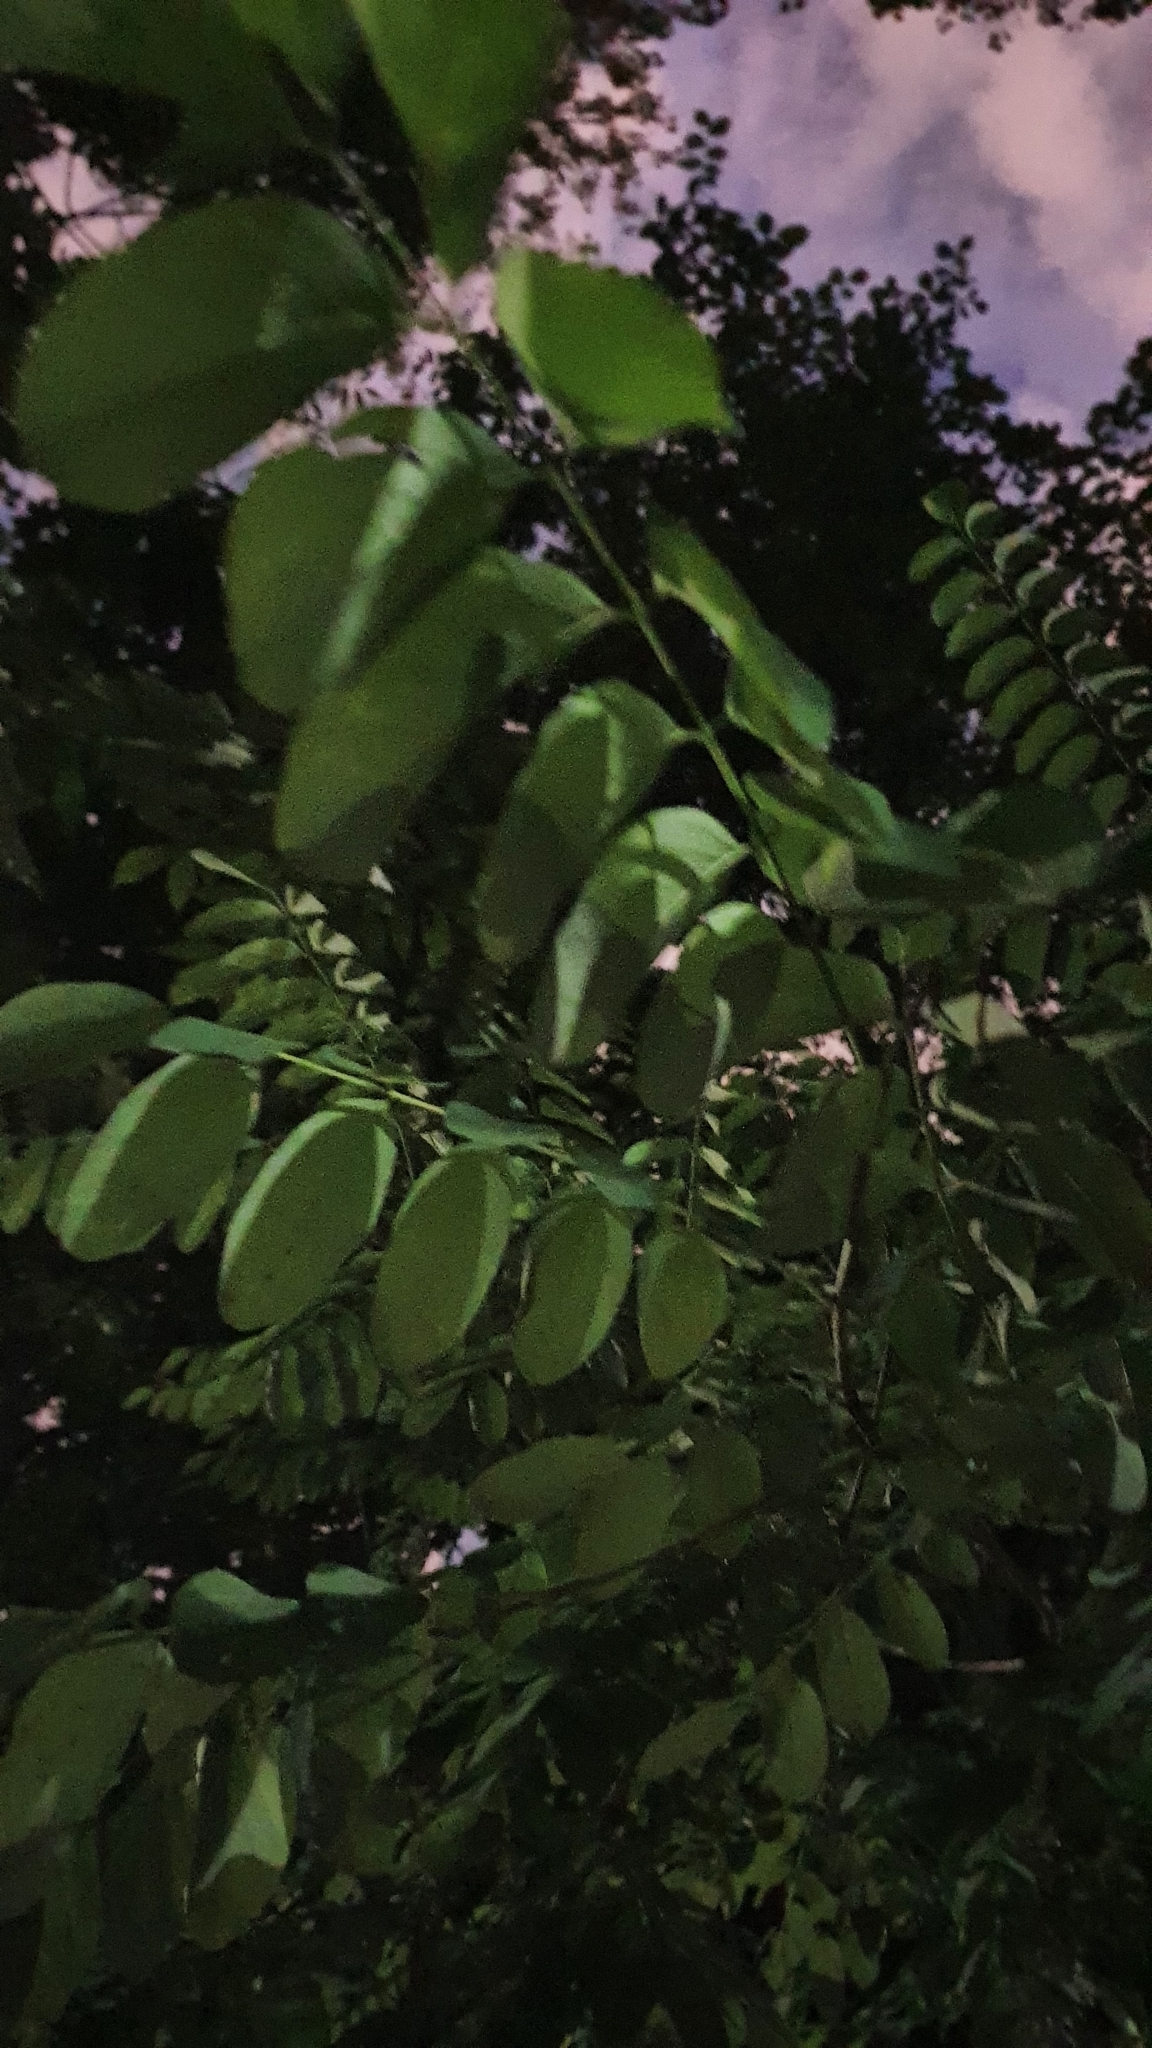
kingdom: Plantae
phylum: Tracheophyta
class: Magnoliopsida
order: Fabales
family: Fabaceae
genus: Robinia
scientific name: Robinia pseudoacacia
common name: Black locust
